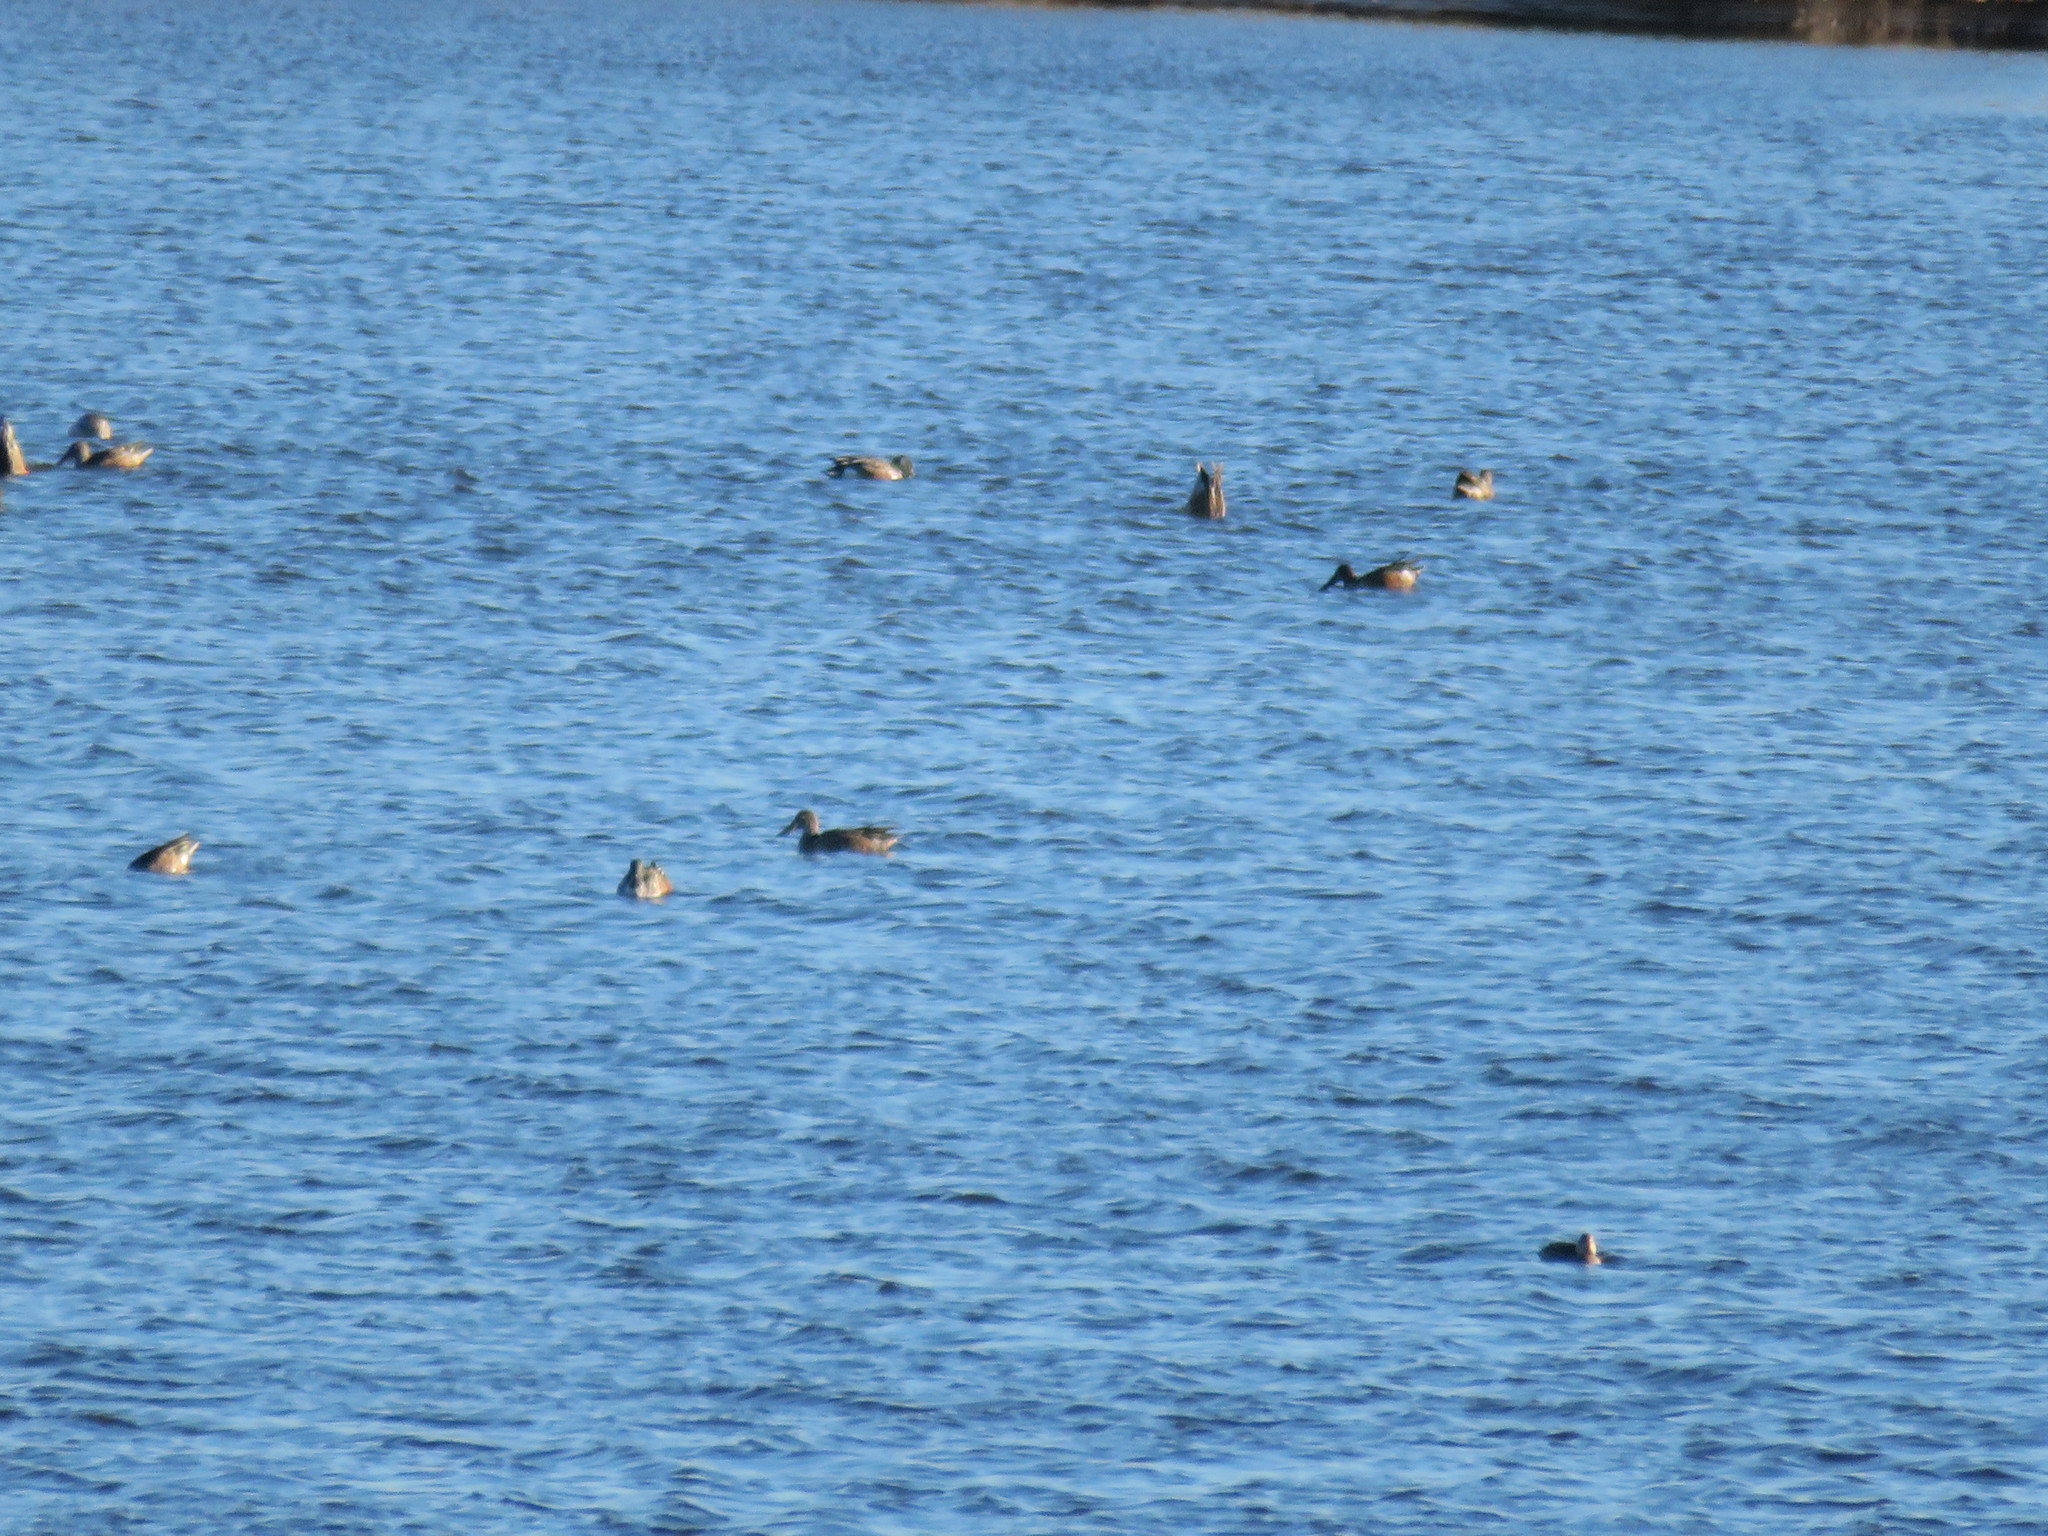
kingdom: Animalia
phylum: Chordata
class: Aves
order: Anseriformes
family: Anatidae
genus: Spatula
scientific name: Spatula clypeata
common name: Northern shoveler
